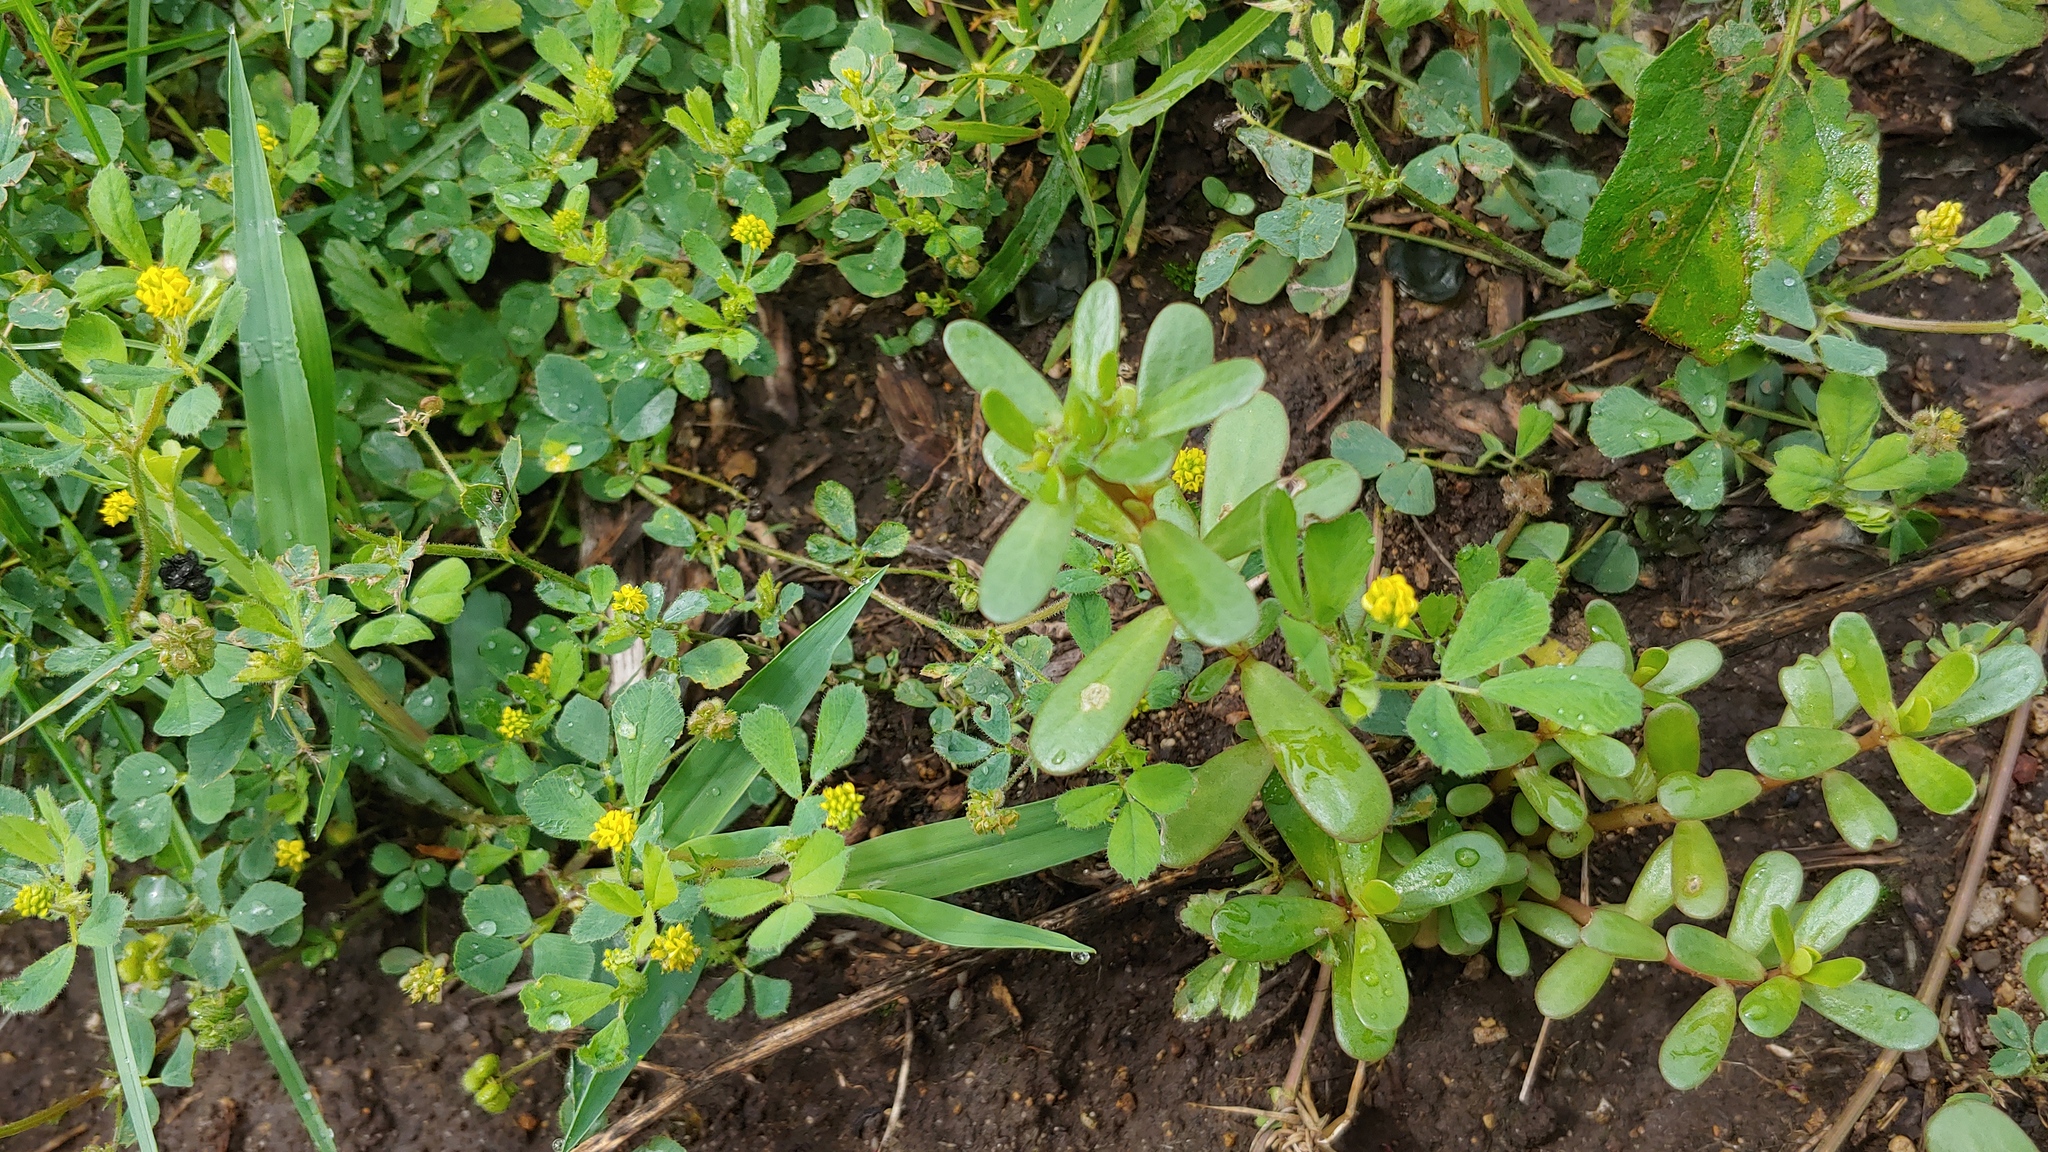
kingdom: Plantae
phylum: Tracheophyta
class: Magnoliopsida
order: Caryophyllales
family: Portulacaceae
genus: Portulaca
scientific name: Portulaca oleracea
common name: Common purslane
